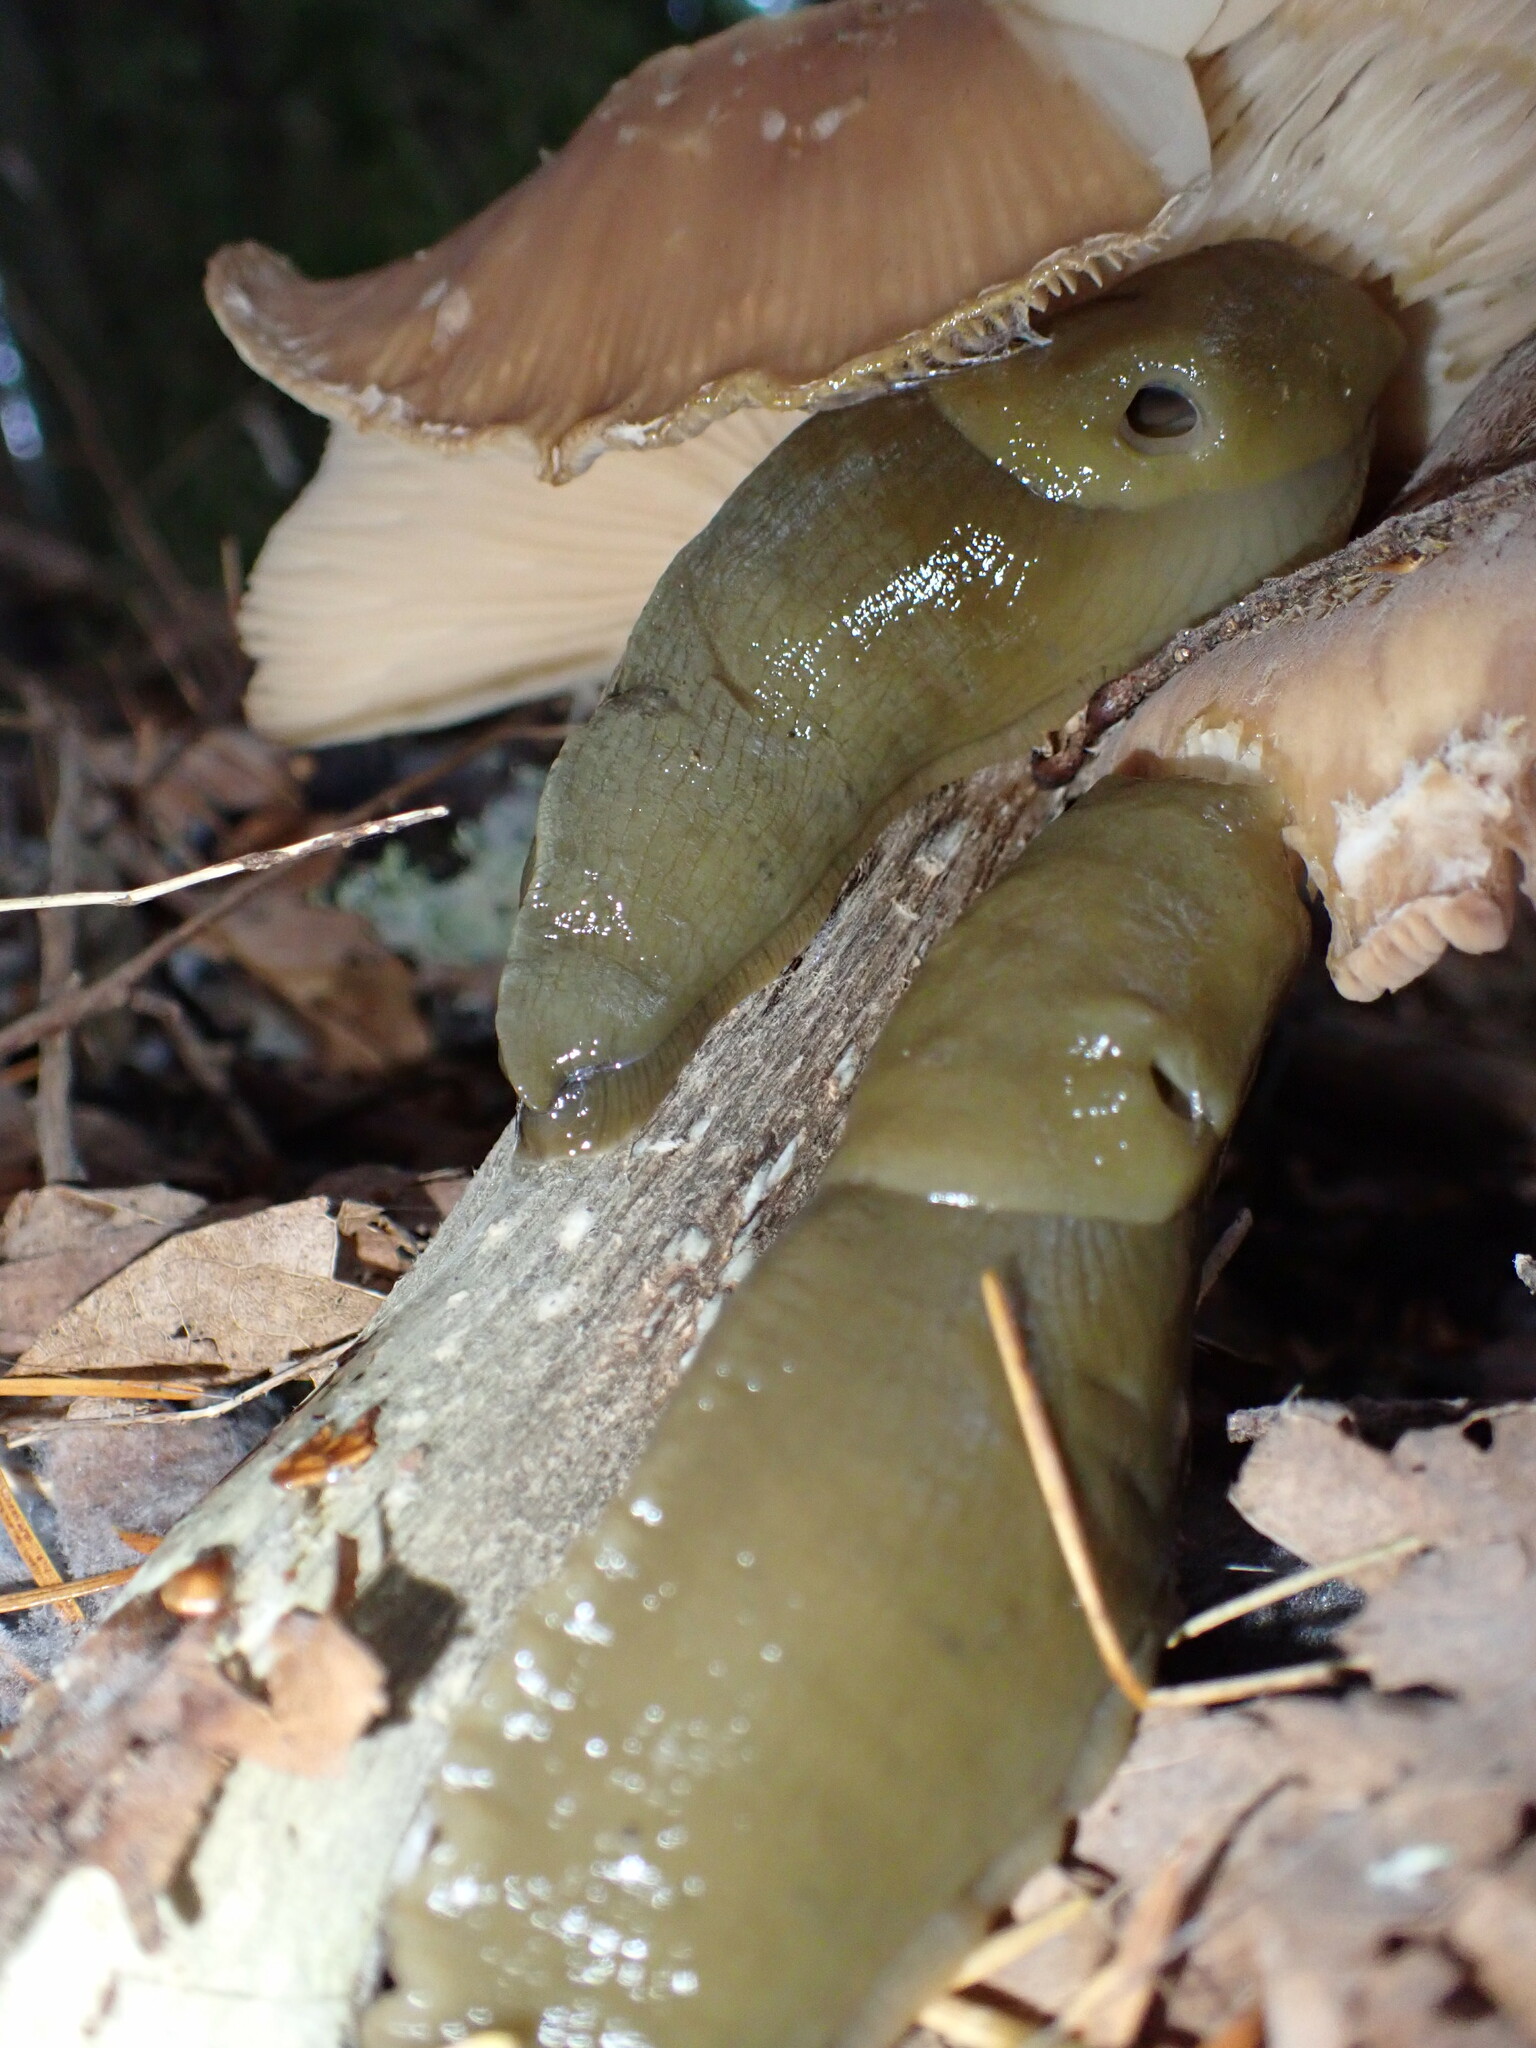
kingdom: Animalia
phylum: Mollusca
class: Gastropoda
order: Stylommatophora
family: Ariolimacidae
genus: Ariolimax
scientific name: Ariolimax columbianus
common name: Pacific banana slug
